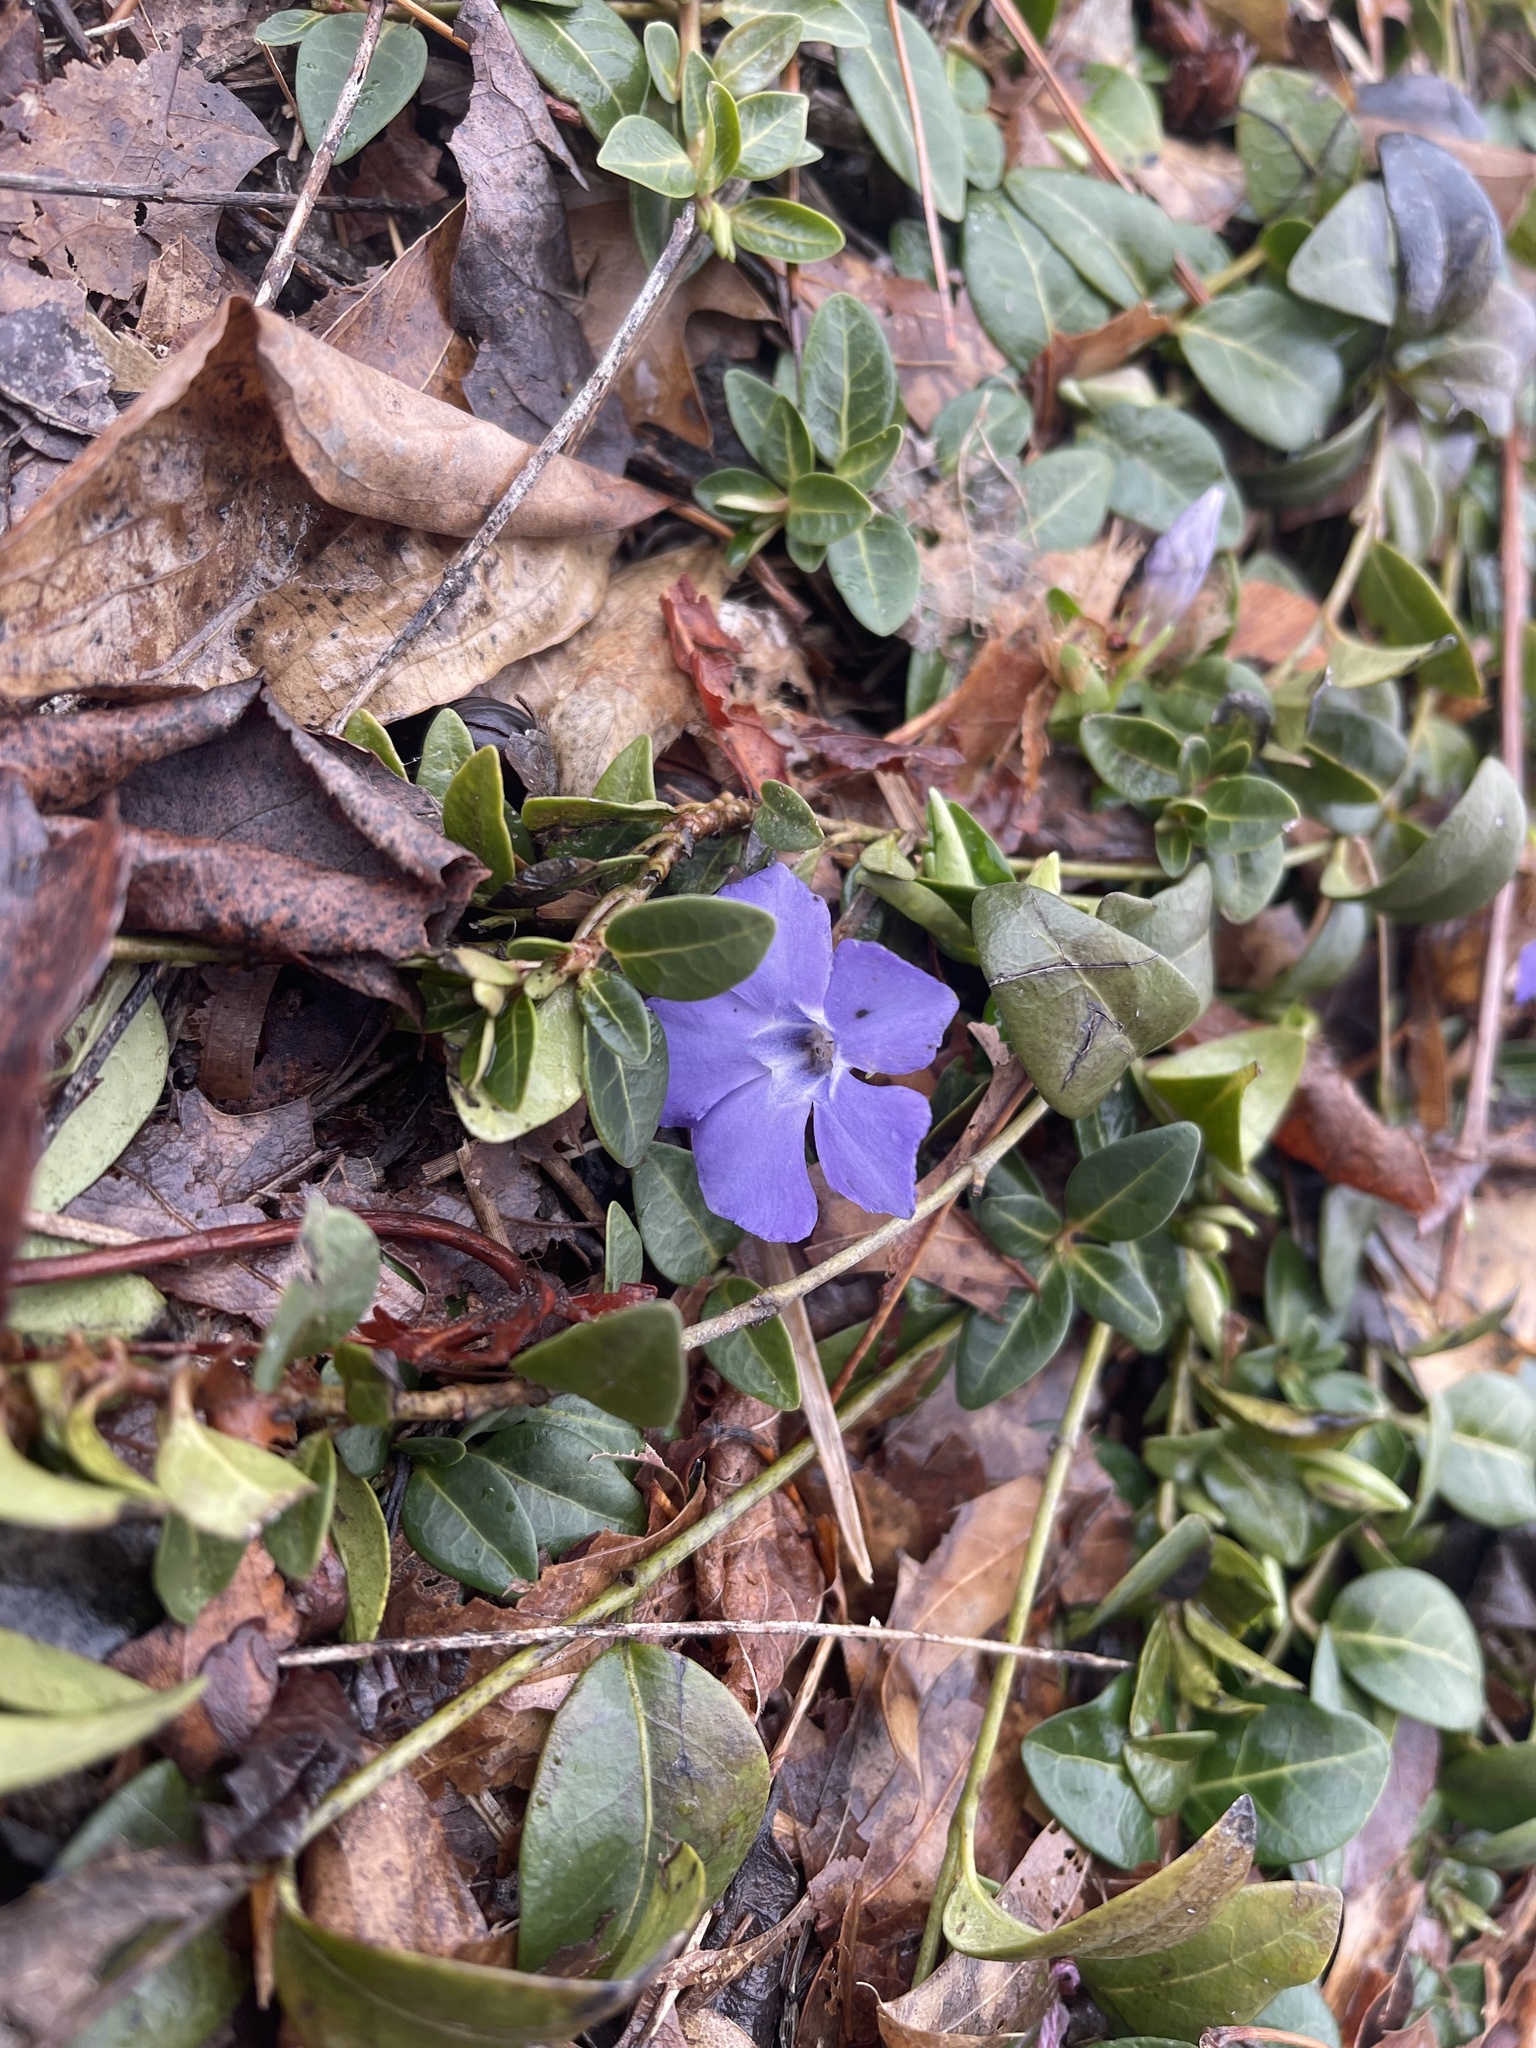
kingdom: Plantae
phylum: Tracheophyta
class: Magnoliopsida
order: Gentianales
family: Apocynaceae
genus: Vinca
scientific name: Vinca minor
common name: Lesser periwinkle
